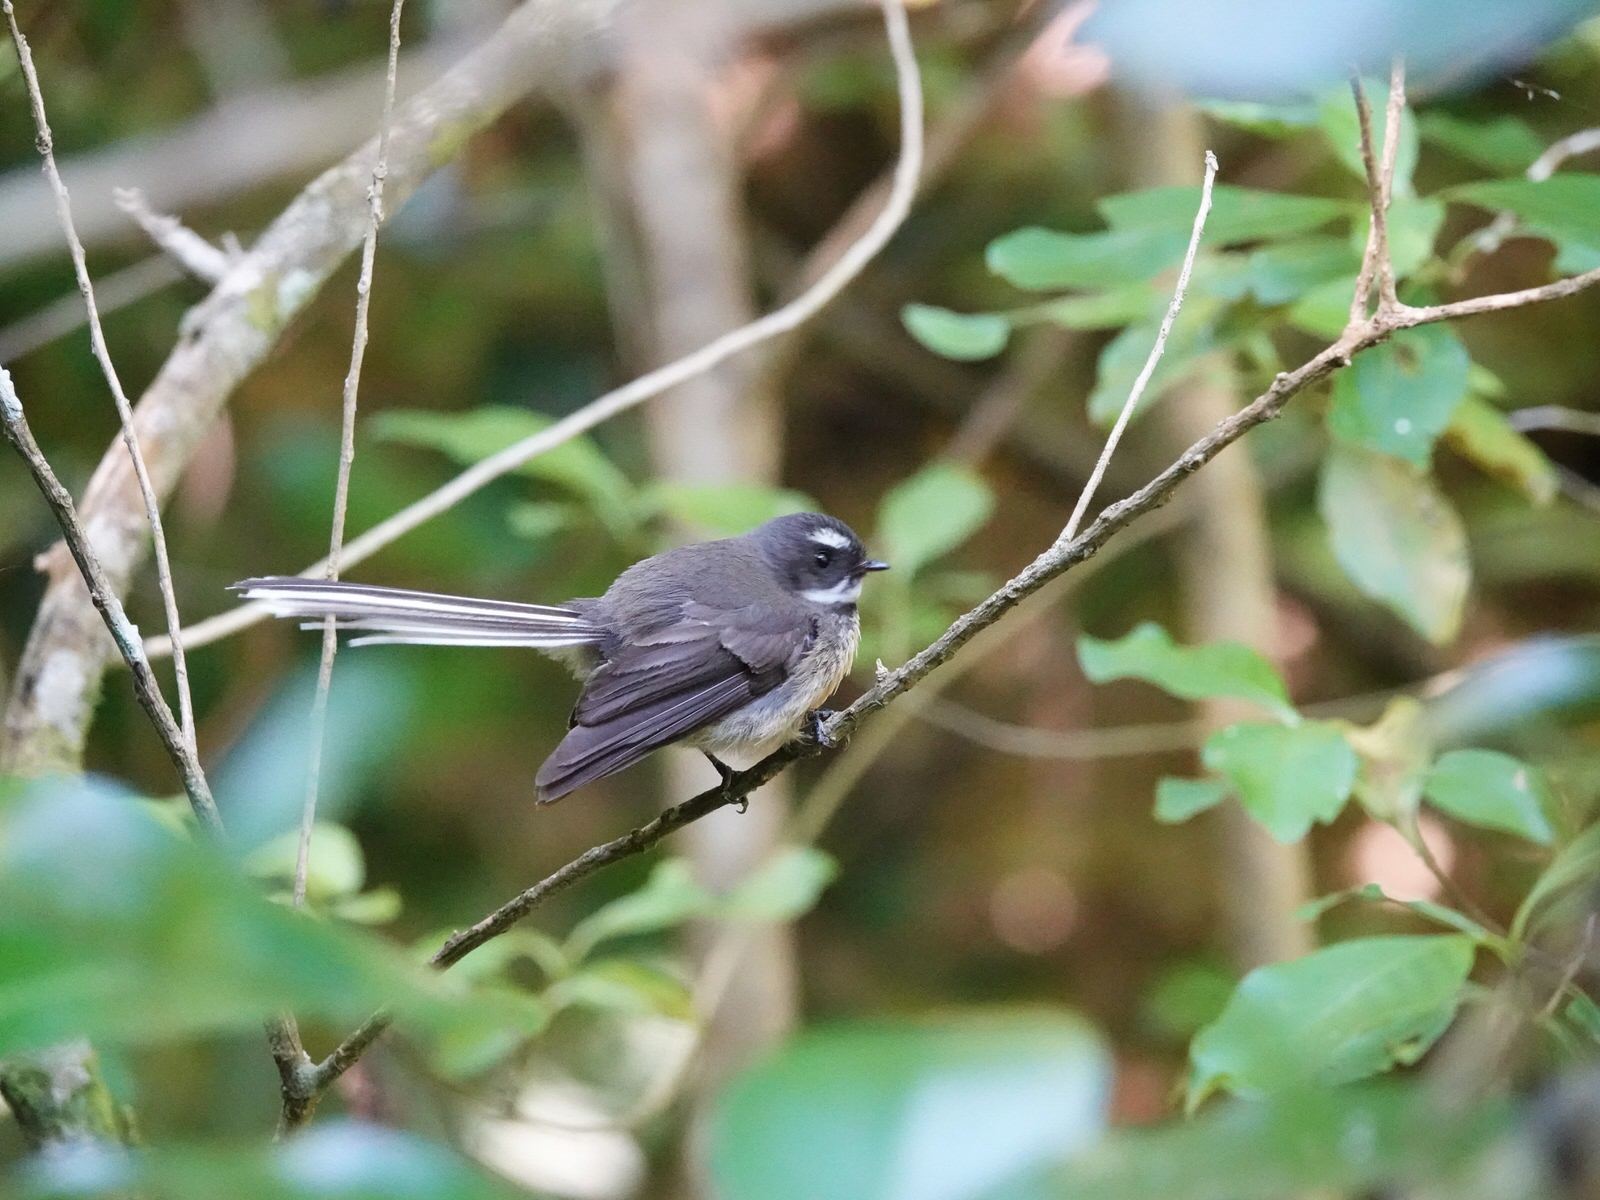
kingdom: Animalia
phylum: Chordata
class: Aves
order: Passeriformes
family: Rhipiduridae
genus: Rhipidura
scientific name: Rhipidura fuliginosa
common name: New zealand fantail
